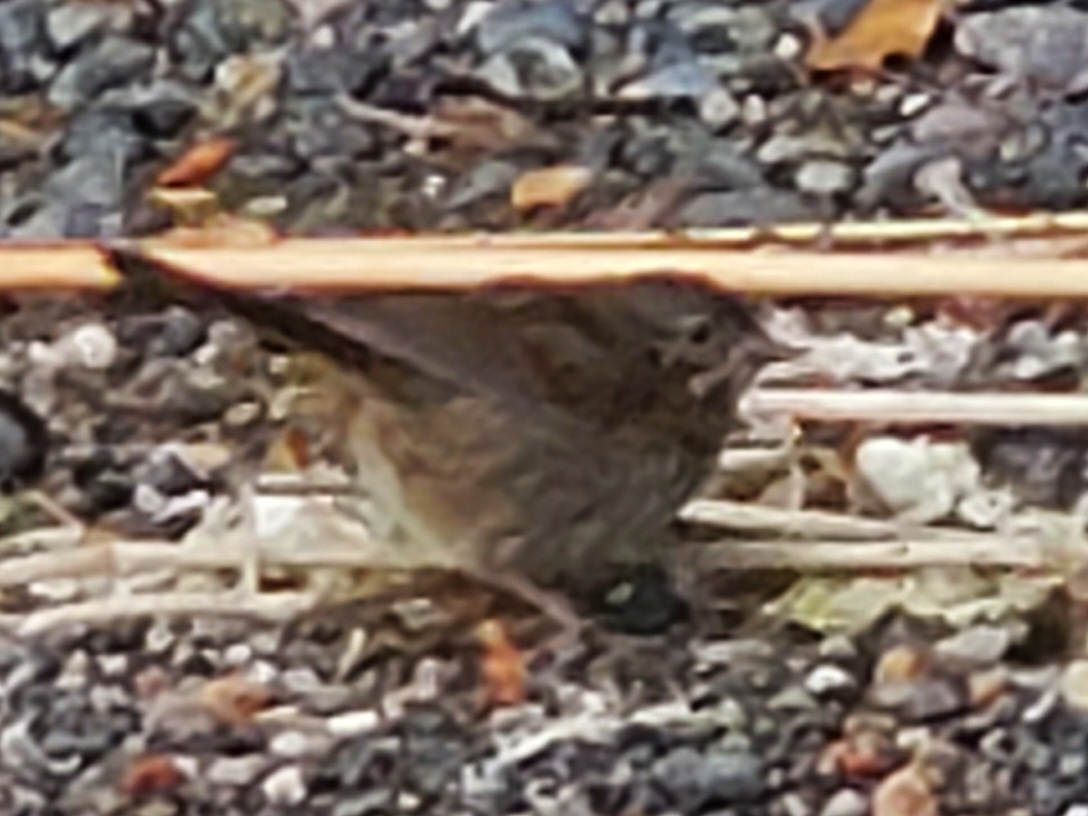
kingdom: Animalia
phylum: Chordata
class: Aves
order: Passeriformes
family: Passerellidae
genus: Melospiza
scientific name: Melospiza melodia
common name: Song sparrow
